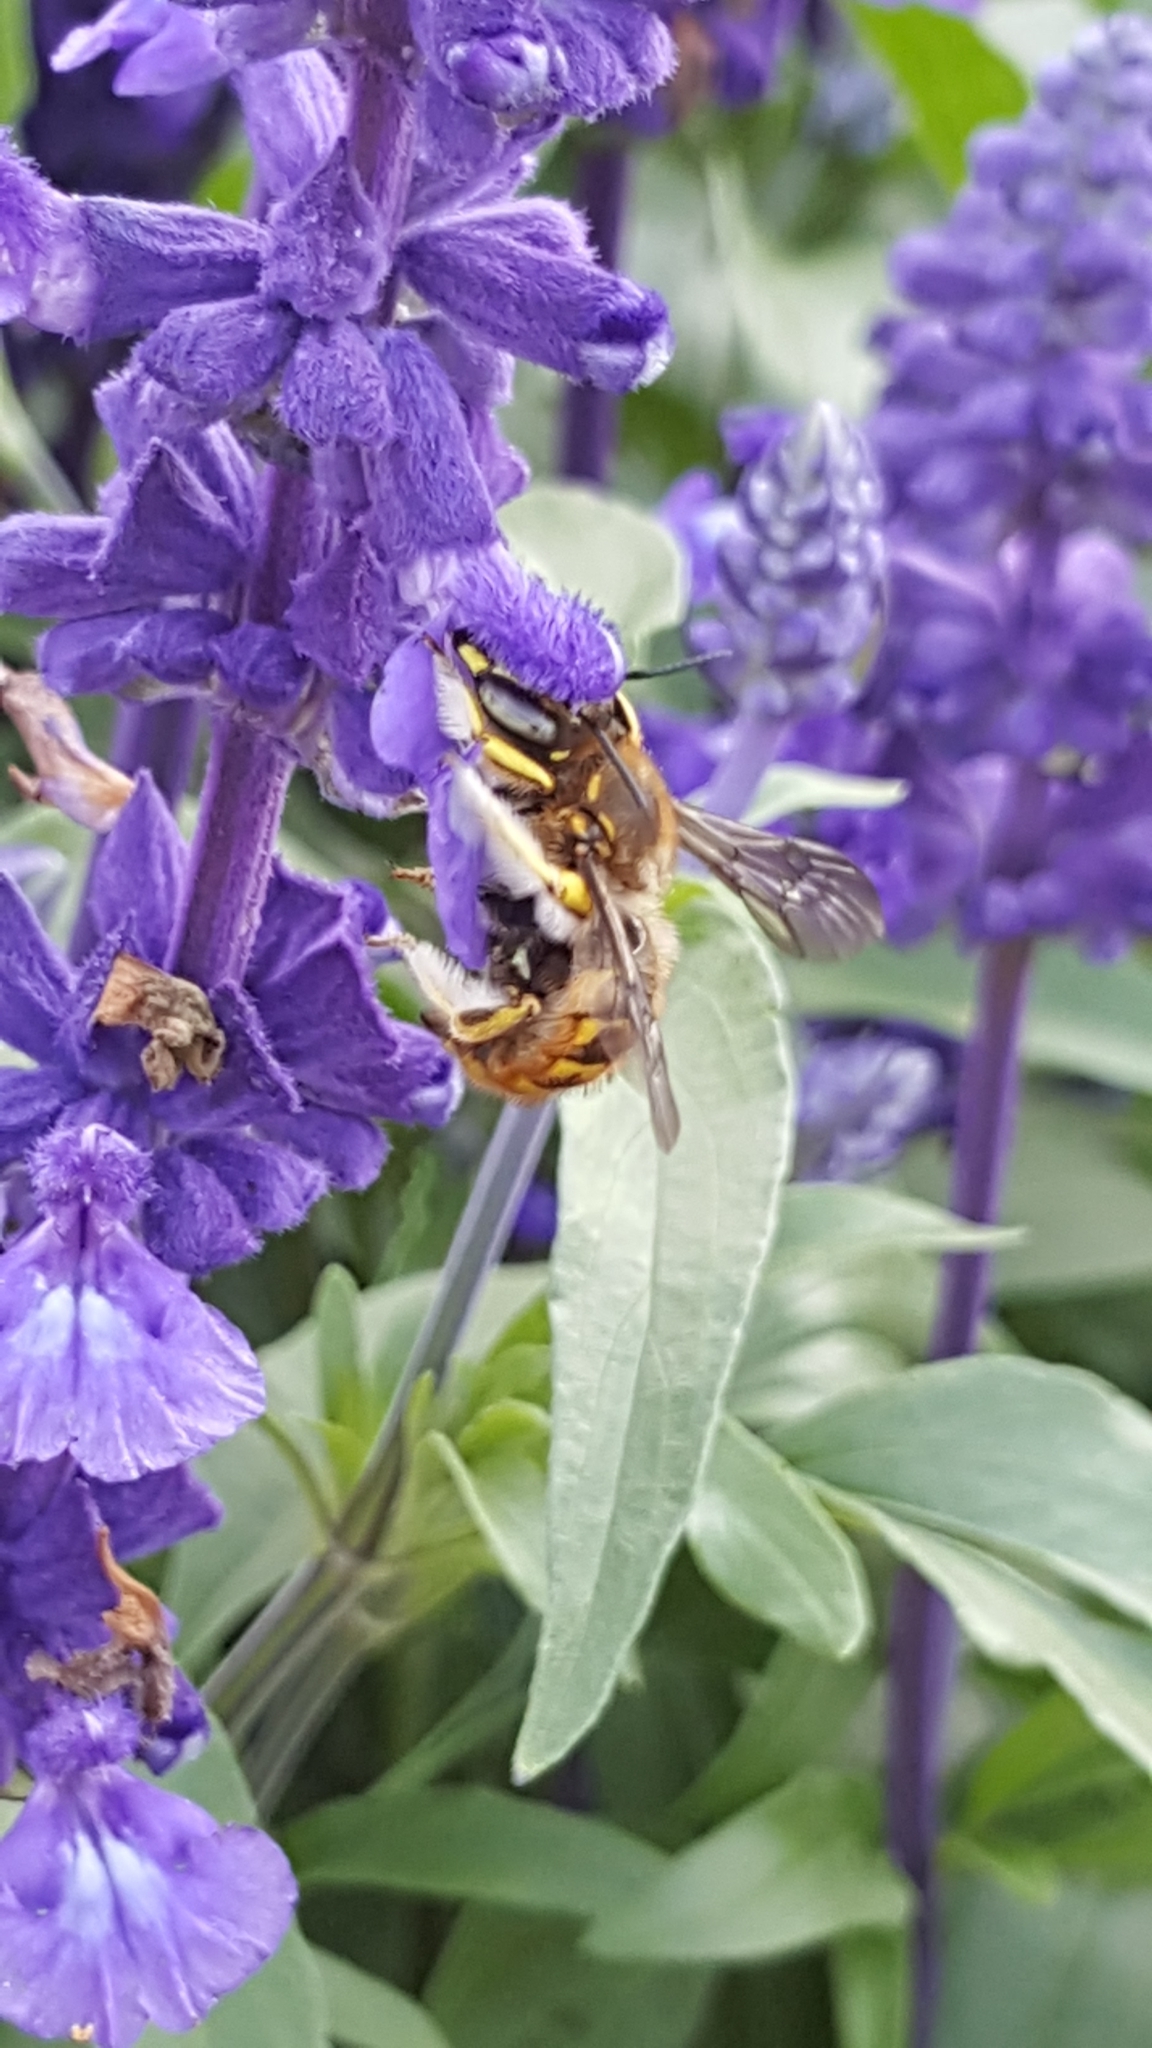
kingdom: Animalia
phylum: Arthropoda
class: Insecta
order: Hymenoptera
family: Megachilidae
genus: Anthidium
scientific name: Anthidium manicatum
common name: Wool carder bee
